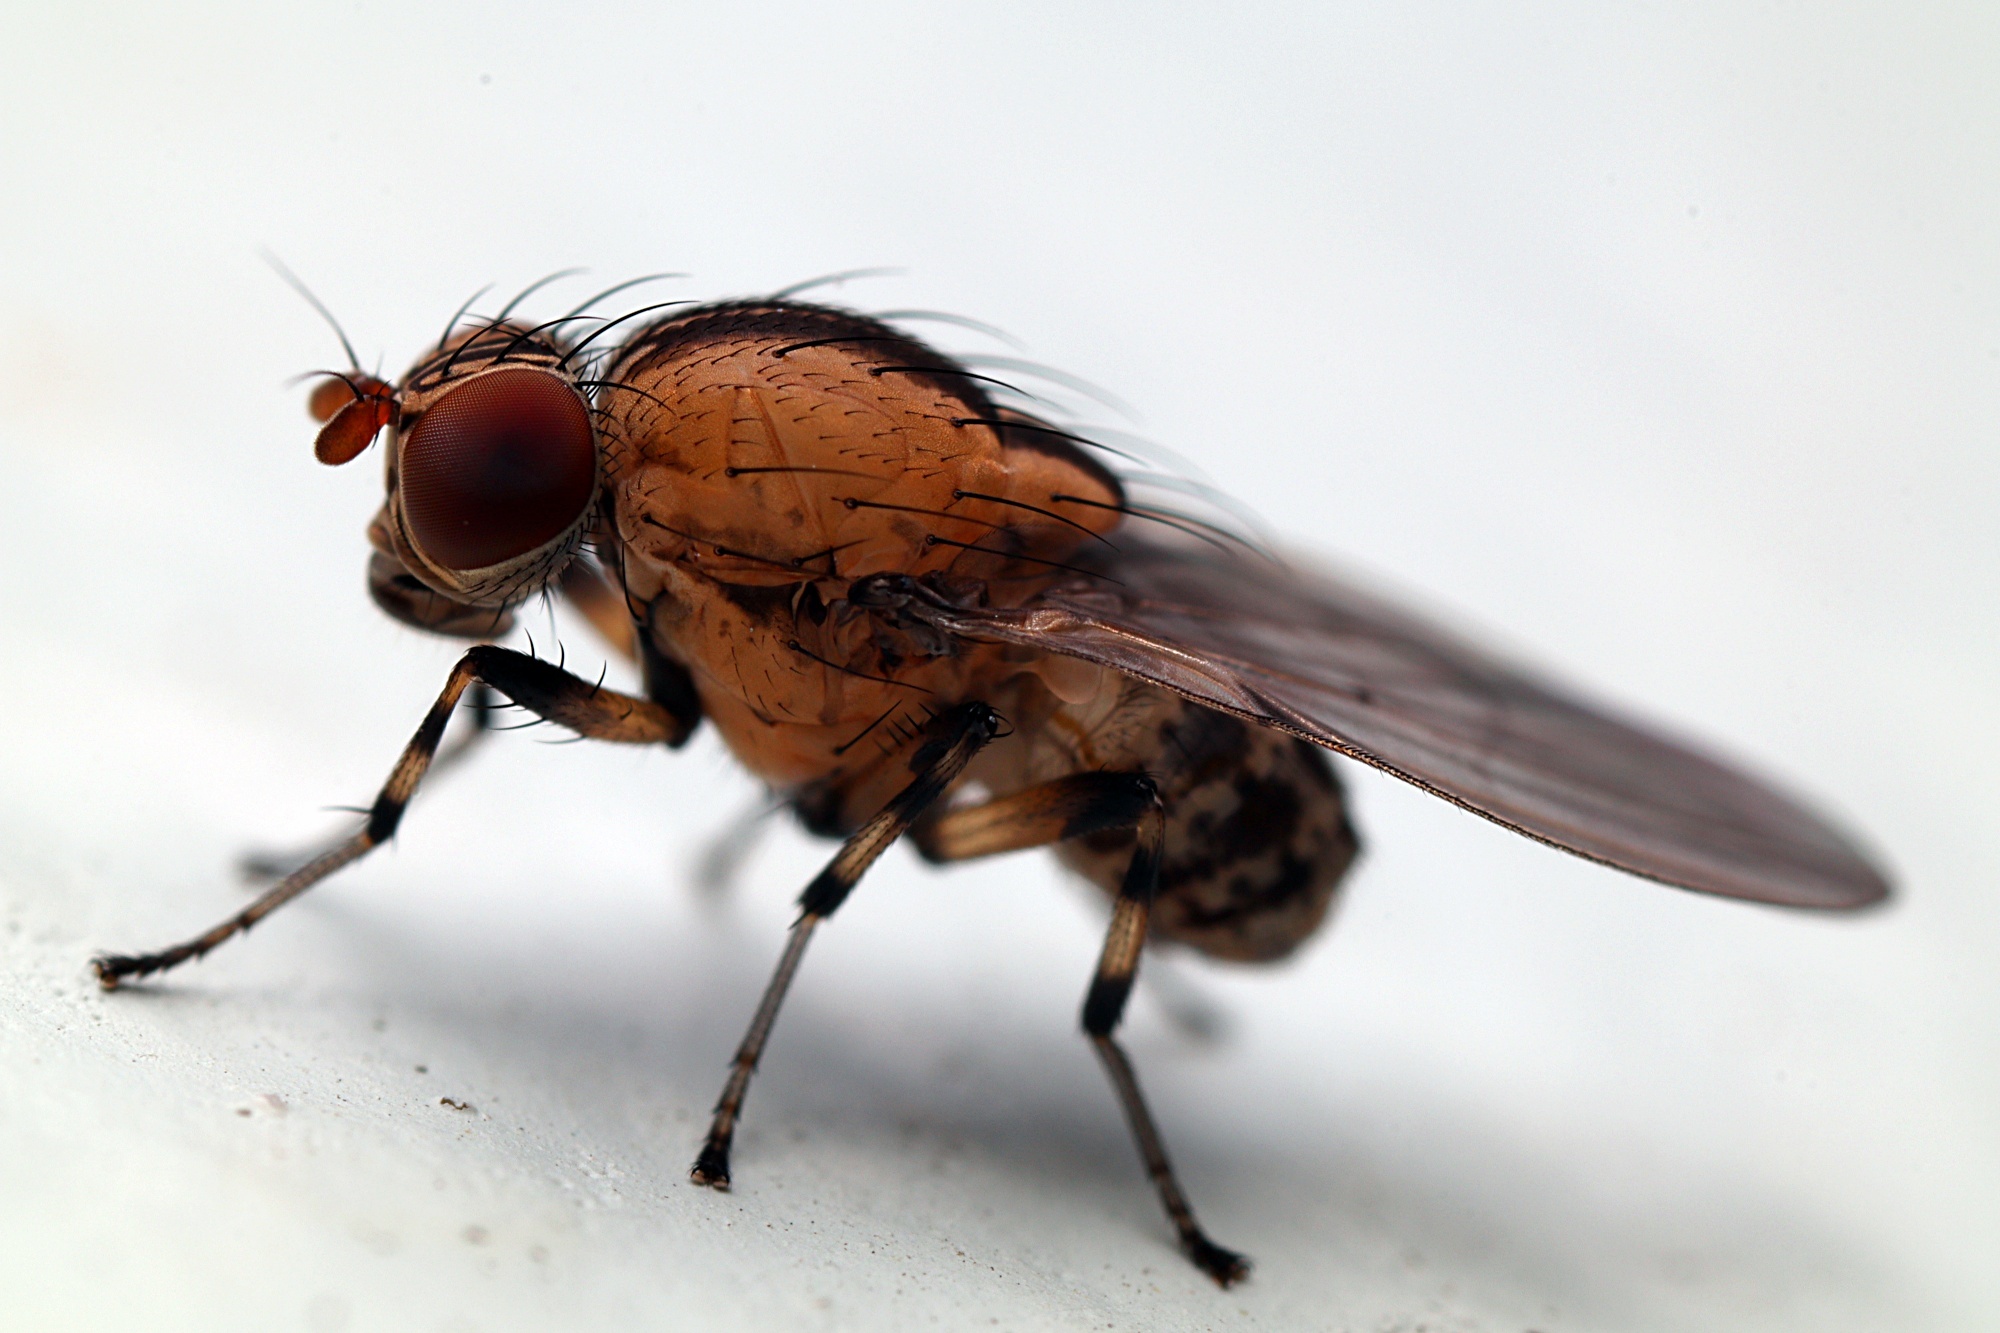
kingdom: Animalia
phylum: Arthropoda
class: Insecta
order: Diptera
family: Lauxaniidae
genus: Sapromyza
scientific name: Sapromyza neozelandica
